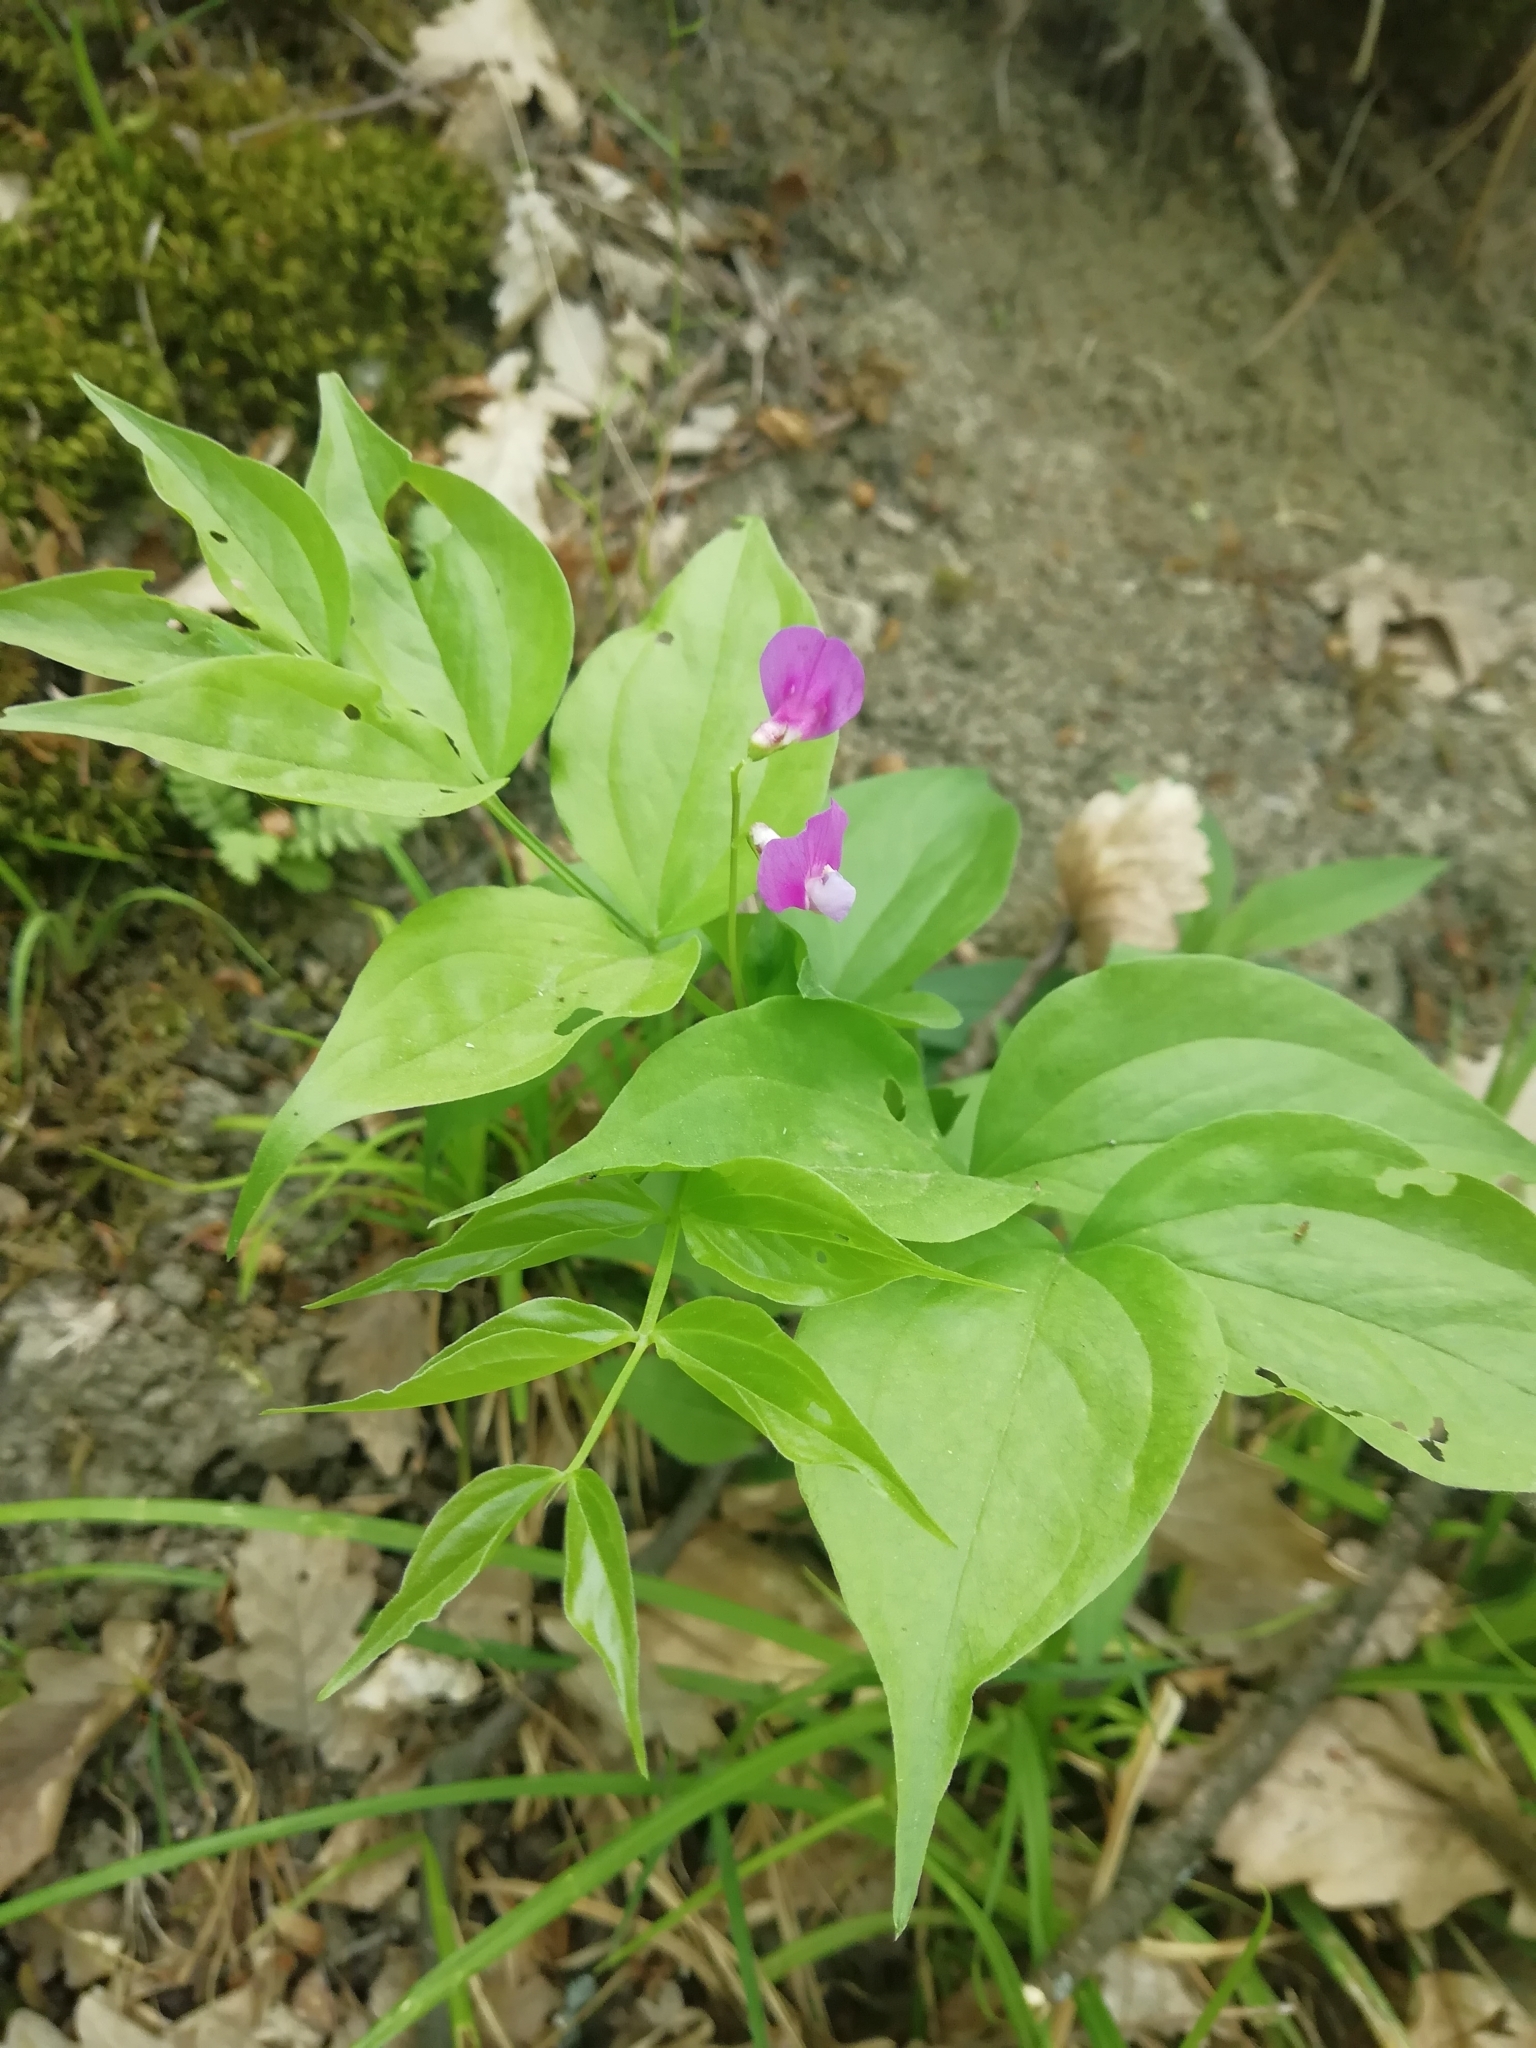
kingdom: Plantae
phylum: Tracheophyta
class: Magnoliopsida
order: Fabales
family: Fabaceae
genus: Lathyrus
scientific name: Lathyrus vernus
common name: Spring pea
